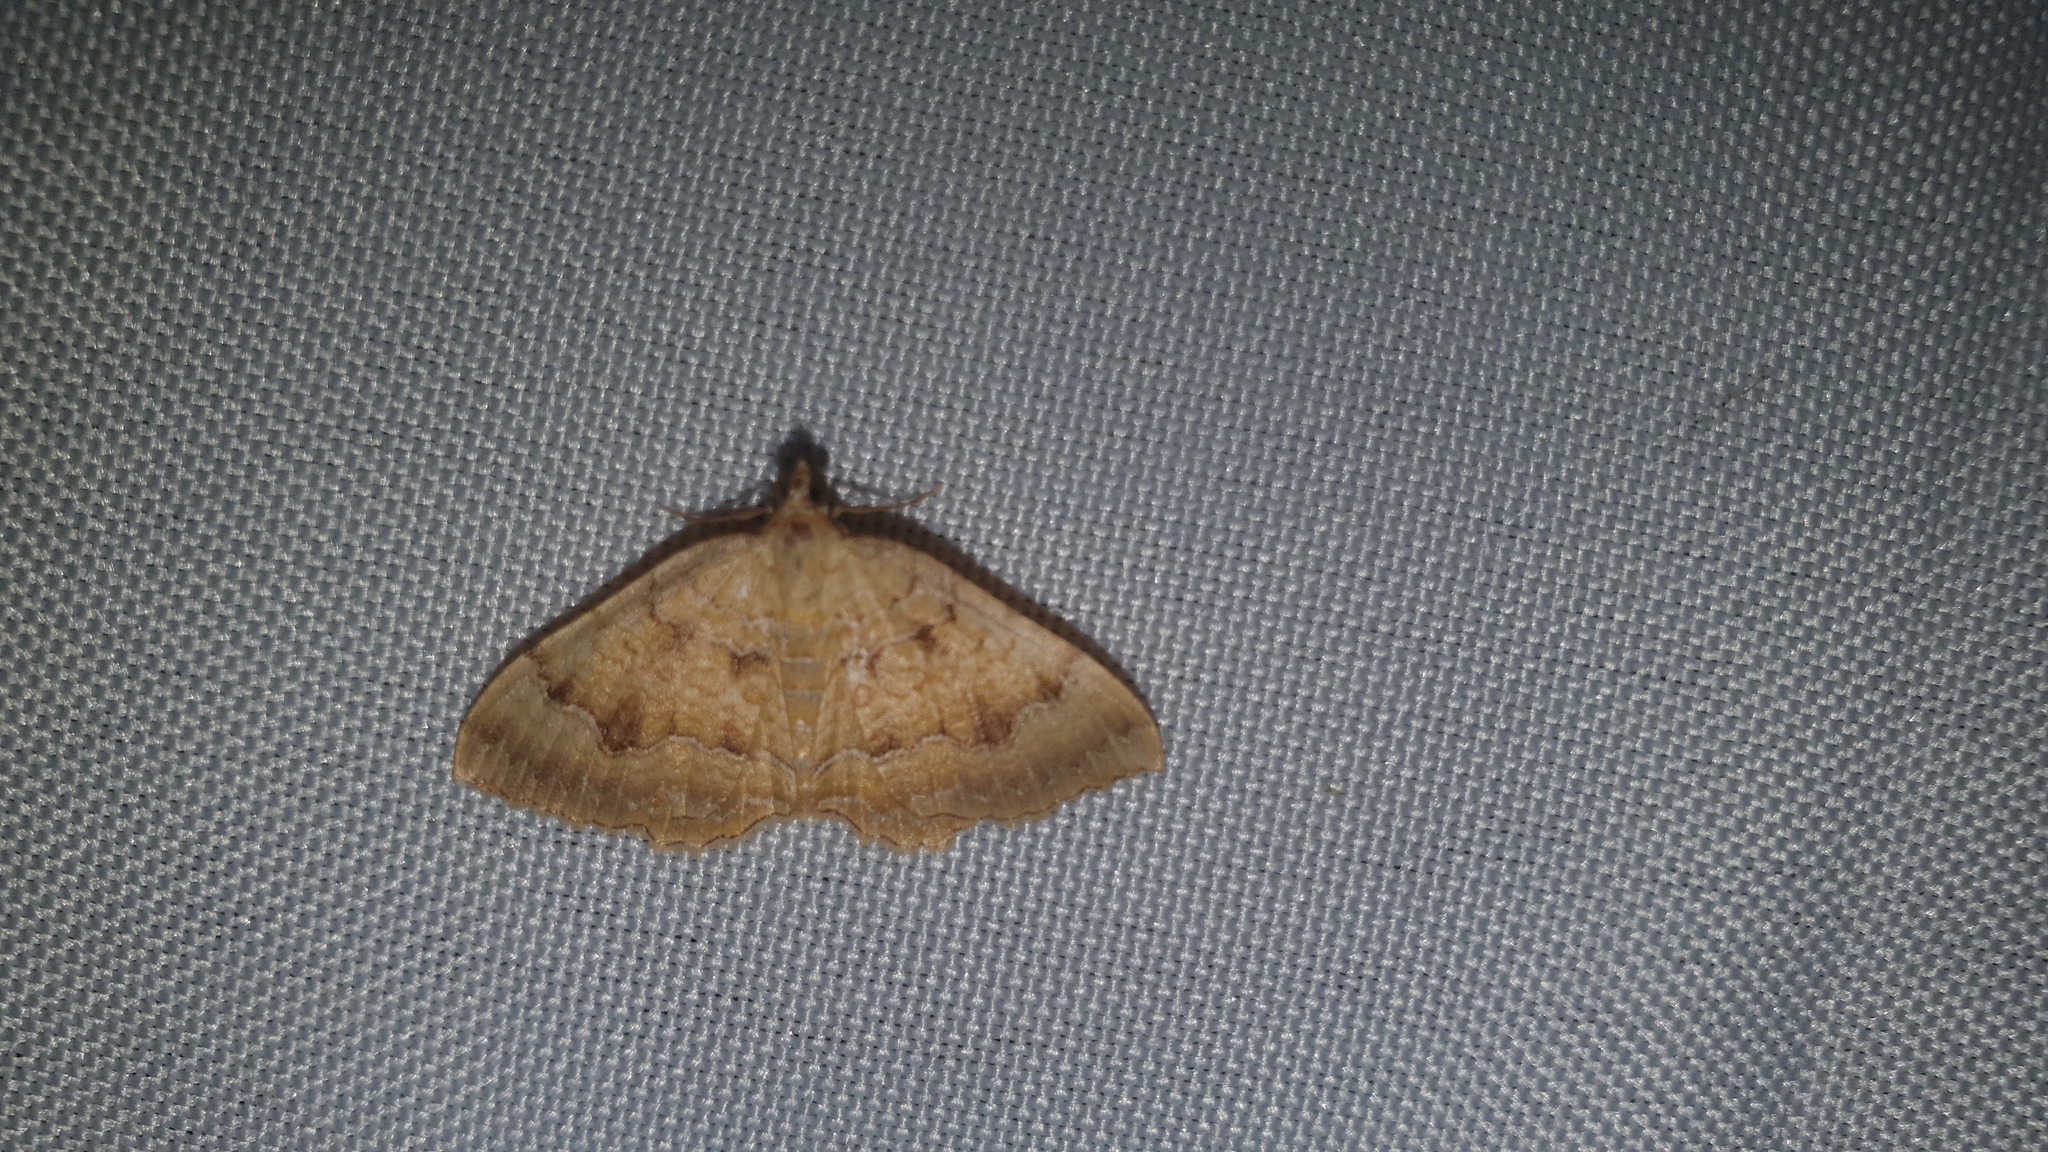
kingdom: Animalia
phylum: Arthropoda
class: Insecta
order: Lepidoptera
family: Geometridae
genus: Camptogramma
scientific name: Camptogramma bilineata
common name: Yellow shell
